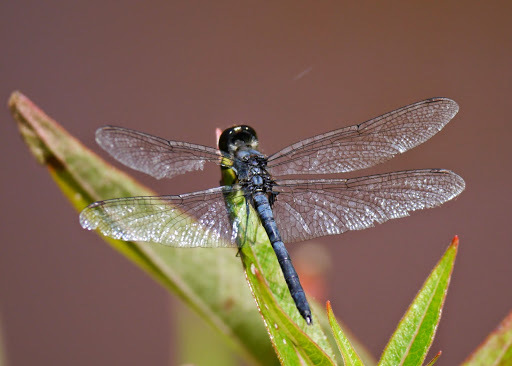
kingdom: Animalia
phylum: Arthropoda
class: Insecta
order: Odonata
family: Libellulidae
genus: Celithemis
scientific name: Celithemis verna
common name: Double-ringed pennant
